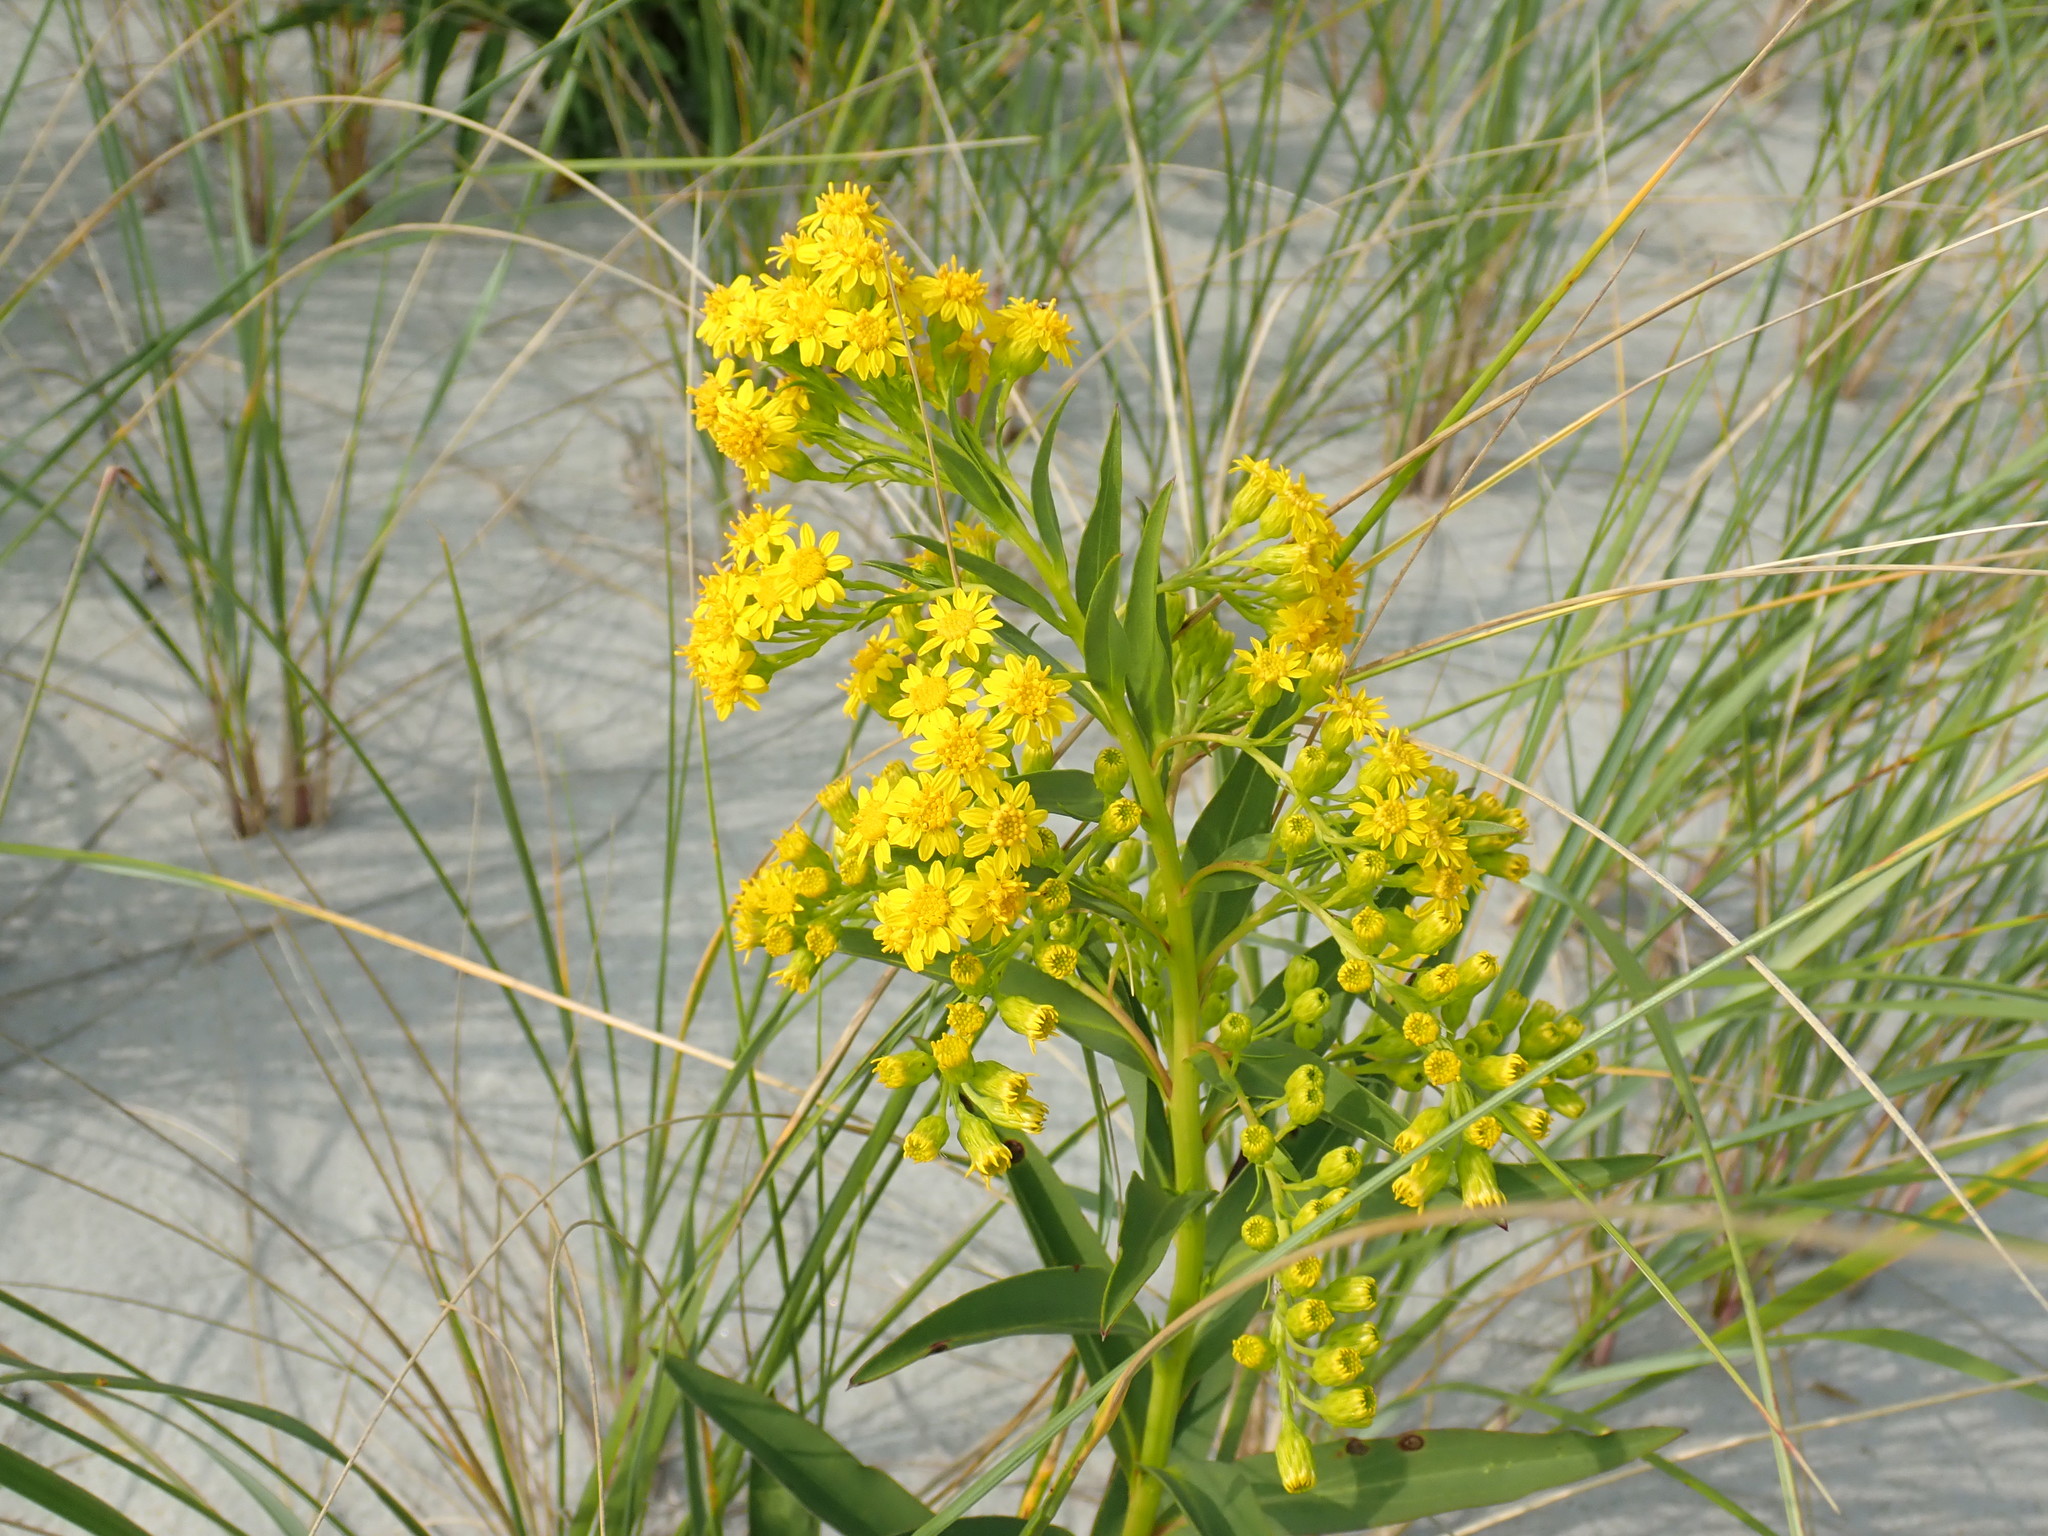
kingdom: Plantae
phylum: Tracheophyta
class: Magnoliopsida
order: Asterales
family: Asteraceae
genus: Solidago
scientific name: Solidago sempervirens
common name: Salt-marsh goldenrod
